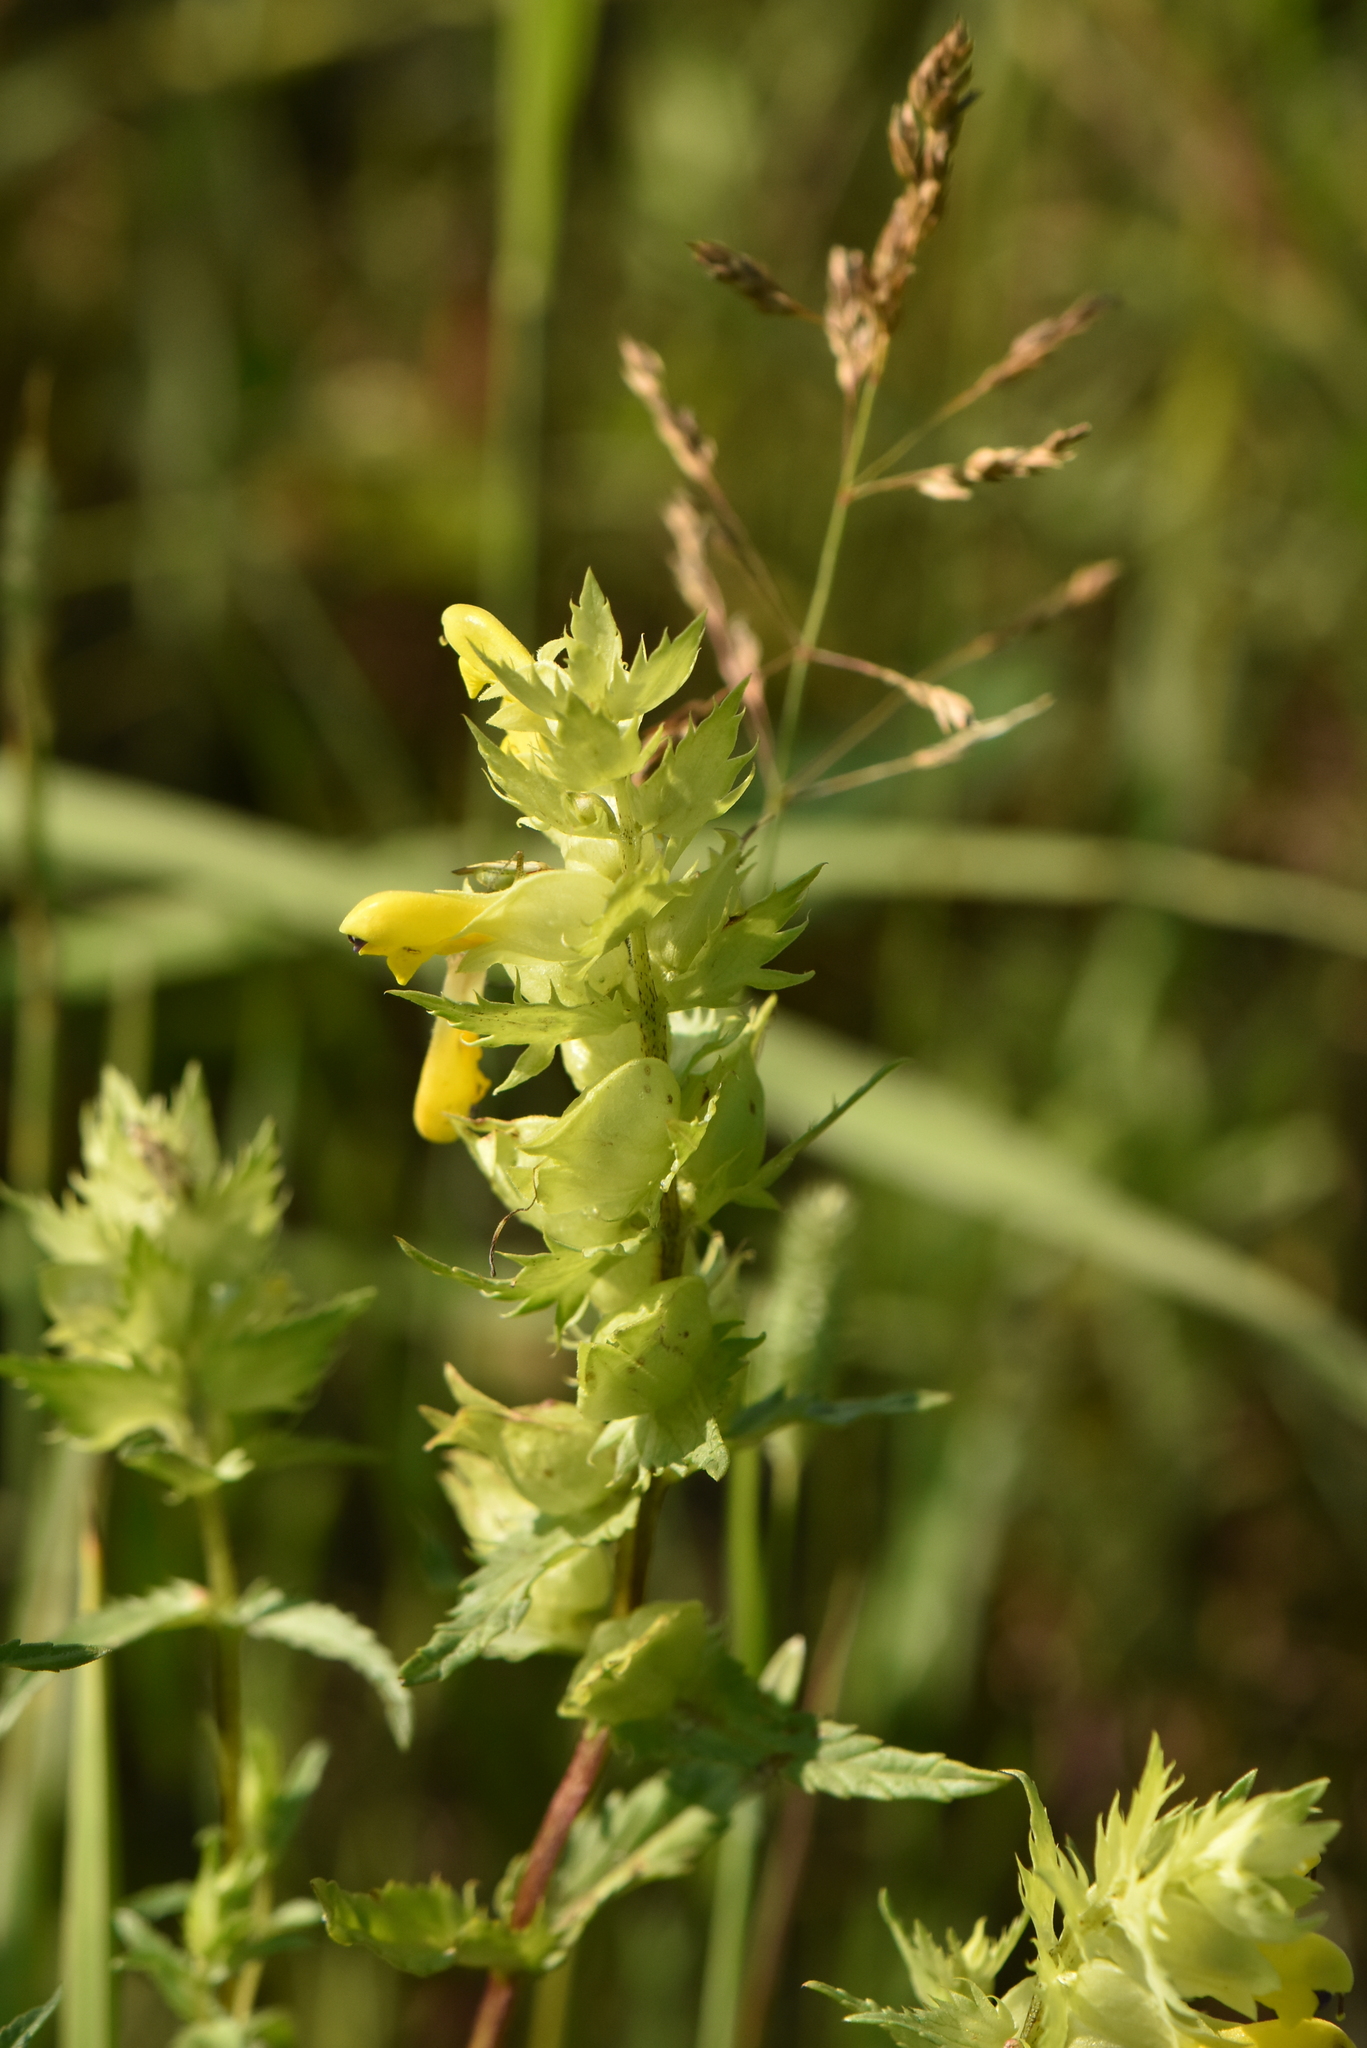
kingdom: Plantae
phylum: Tracheophyta
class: Magnoliopsida
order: Lamiales
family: Orobanchaceae
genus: Rhinanthus
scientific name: Rhinanthus serotinus
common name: Late-flowering yellow rattle
